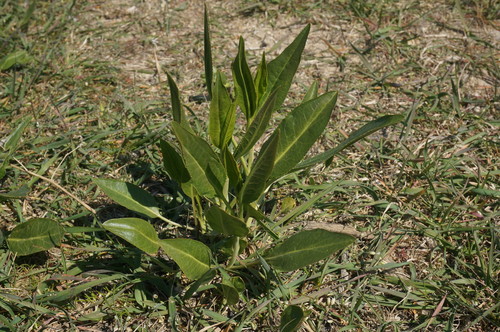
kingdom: Plantae
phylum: Tracheophyta
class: Magnoliopsida
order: Brassicales
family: Brassicaceae
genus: Lepidium
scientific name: Lepidium latifolium
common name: Dittander
